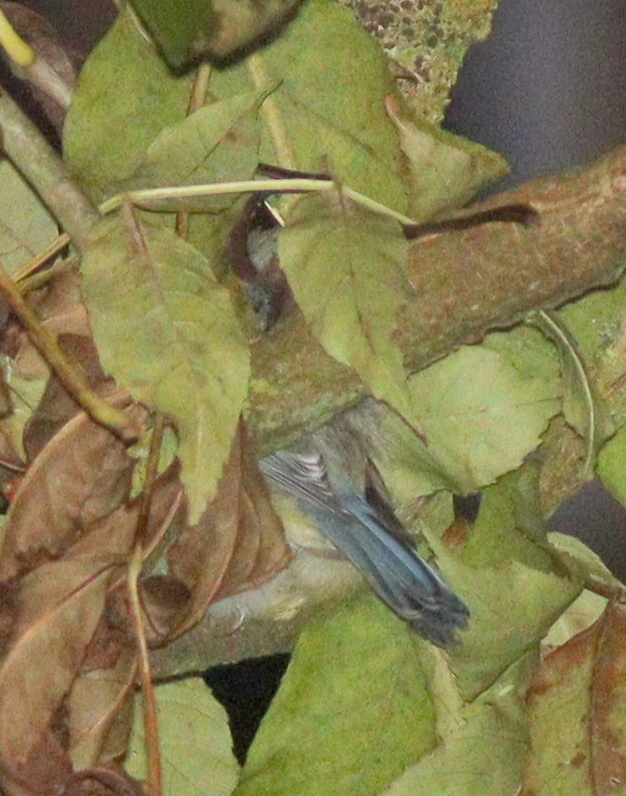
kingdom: Animalia
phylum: Chordata
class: Aves
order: Passeriformes
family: Paridae
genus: Cyanistes
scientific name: Cyanistes caeruleus
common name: Eurasian blue tit
